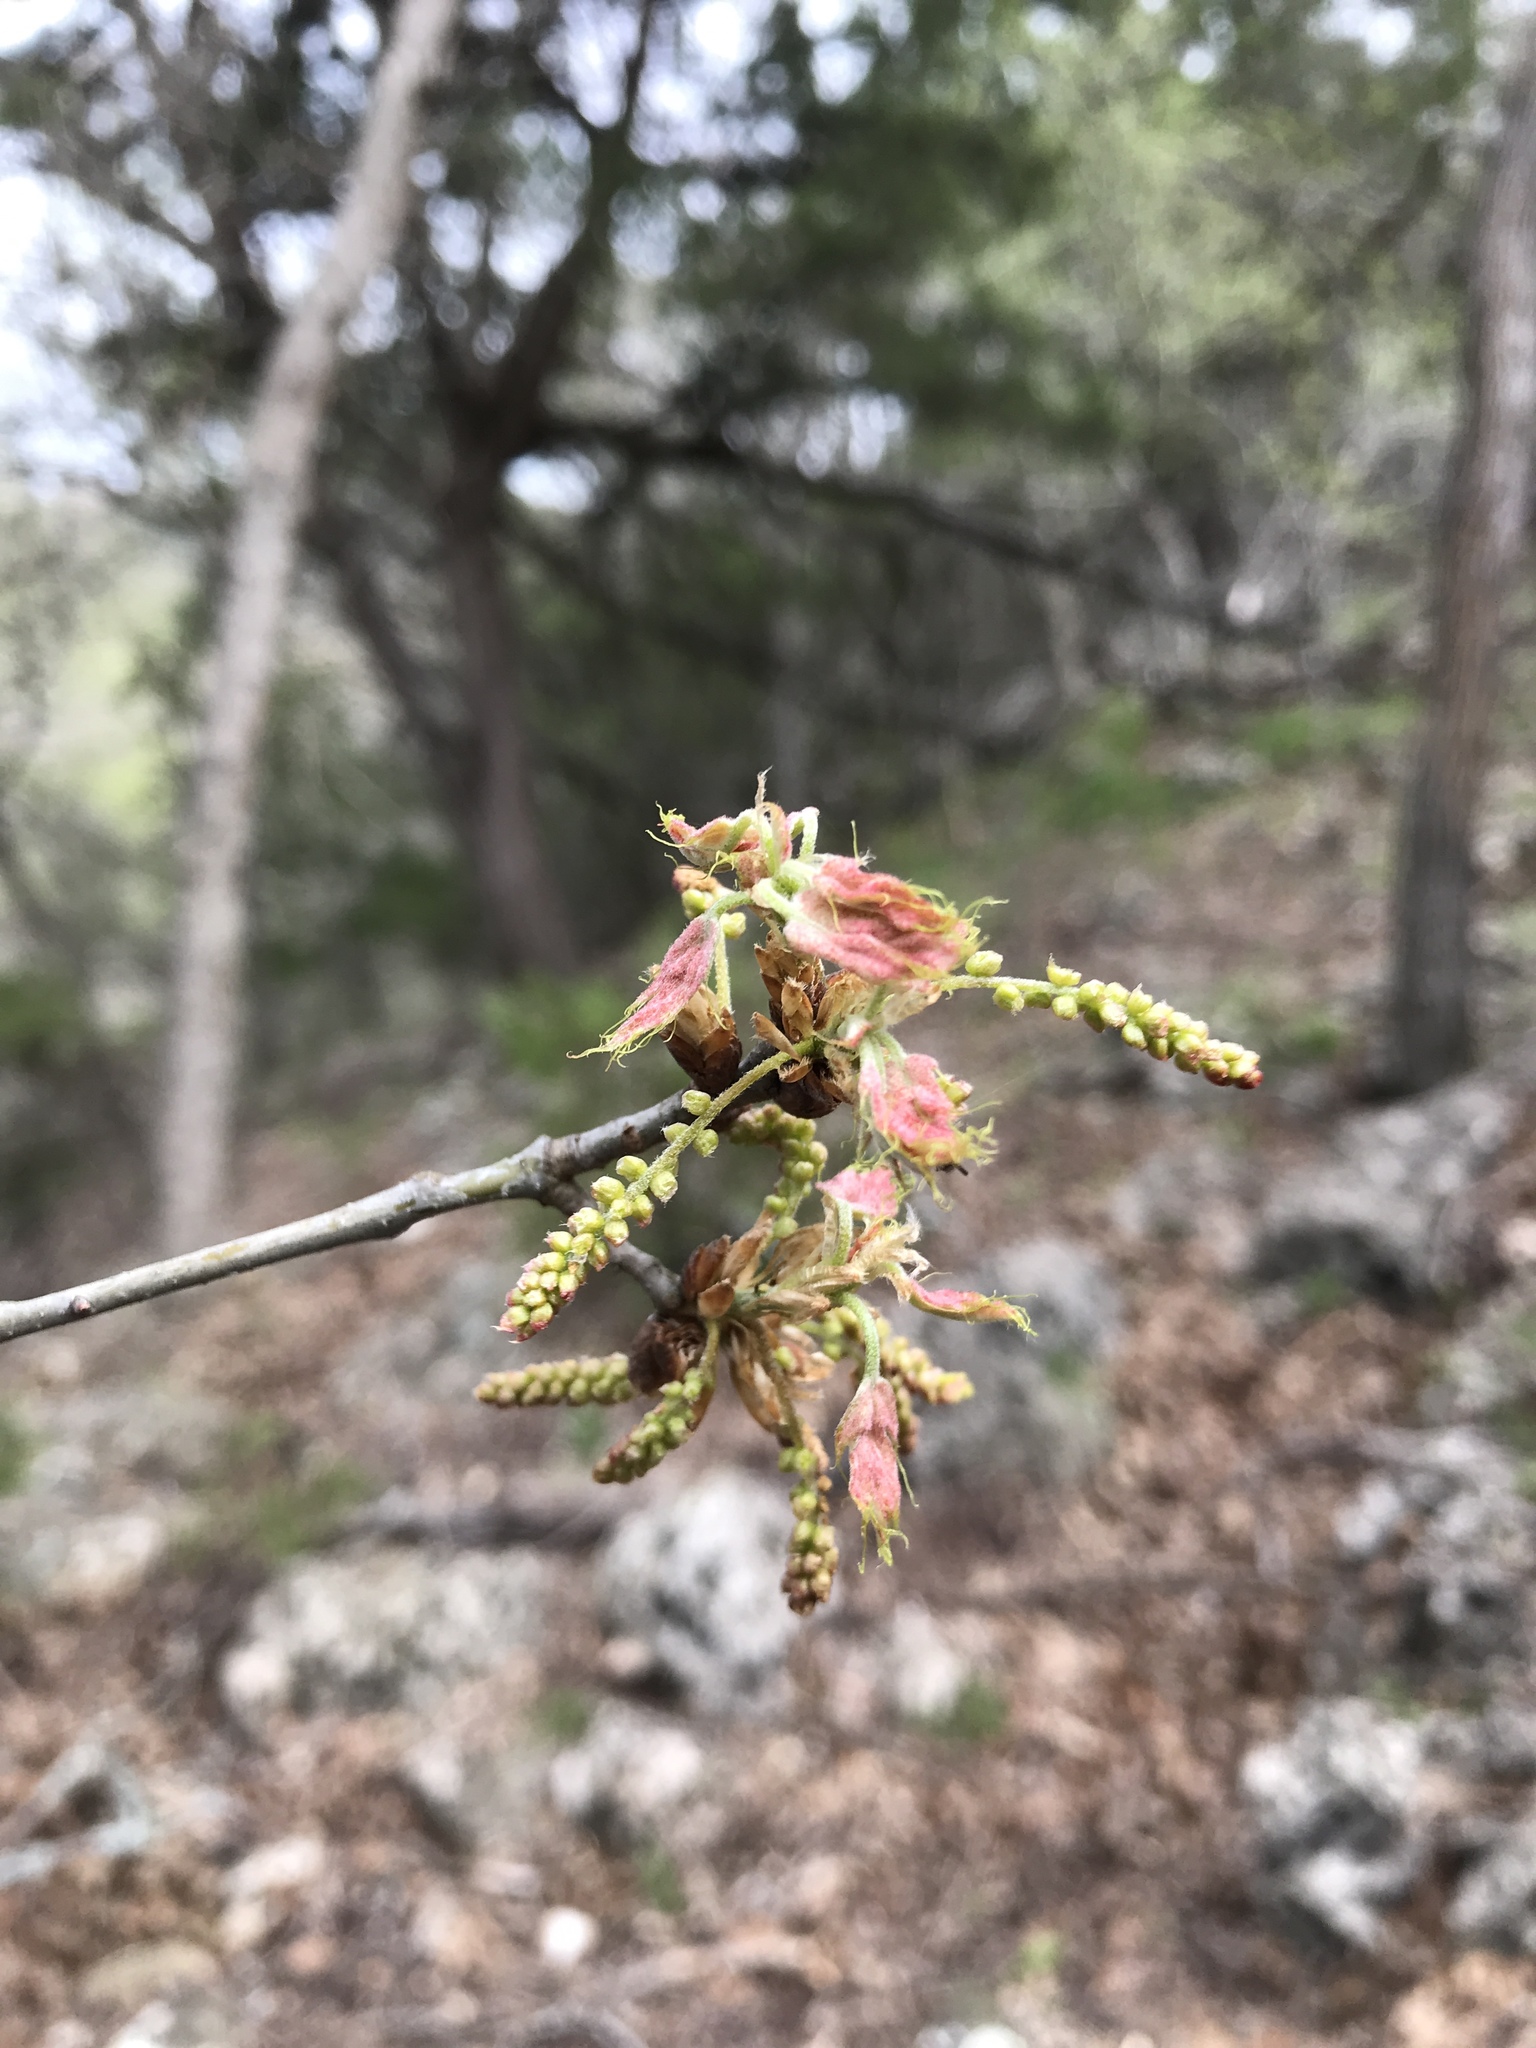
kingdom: Plantae
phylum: Tracheophyta
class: Magnoliopsida
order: Fagales
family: Fagaceae
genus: Quercus
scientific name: Quercus buckleyi
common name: Buckley oak
